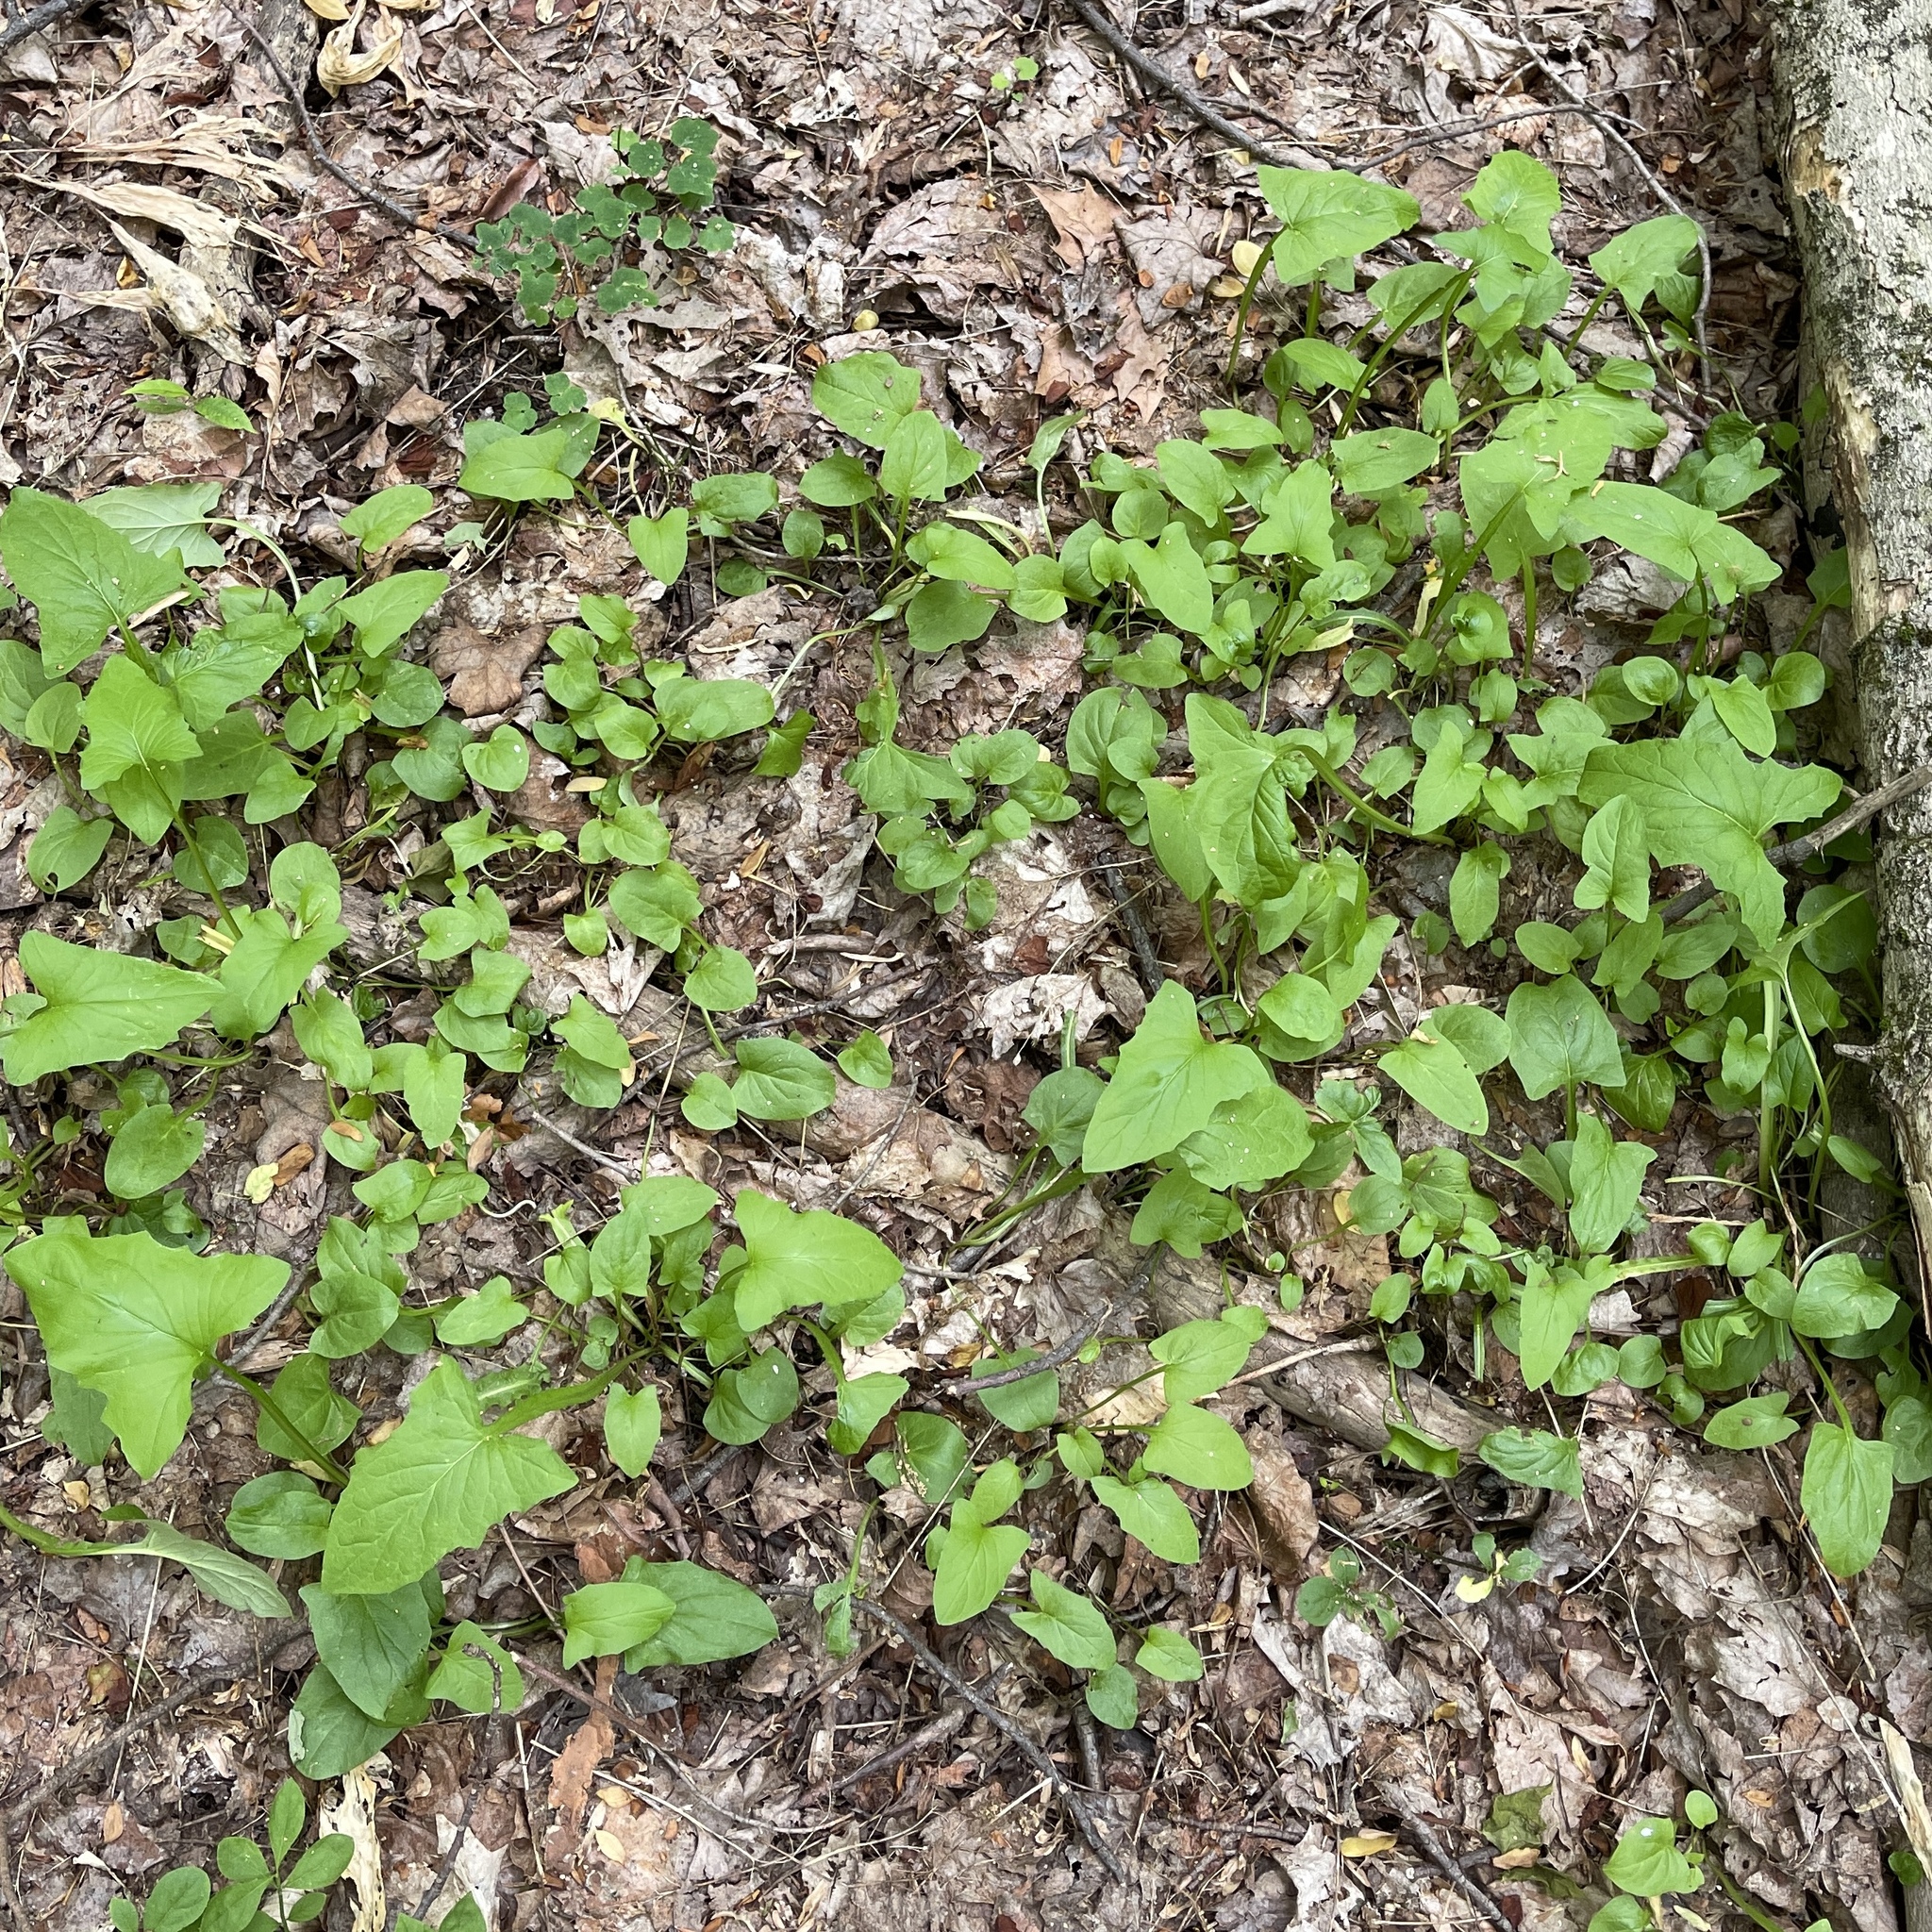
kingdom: Plantae
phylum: Tracheophyta
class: Magnoliopsida
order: Asterales
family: Asteraceae
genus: Nabalus
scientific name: Nabalus crepidineus
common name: Nodding rattlesnakeroot
